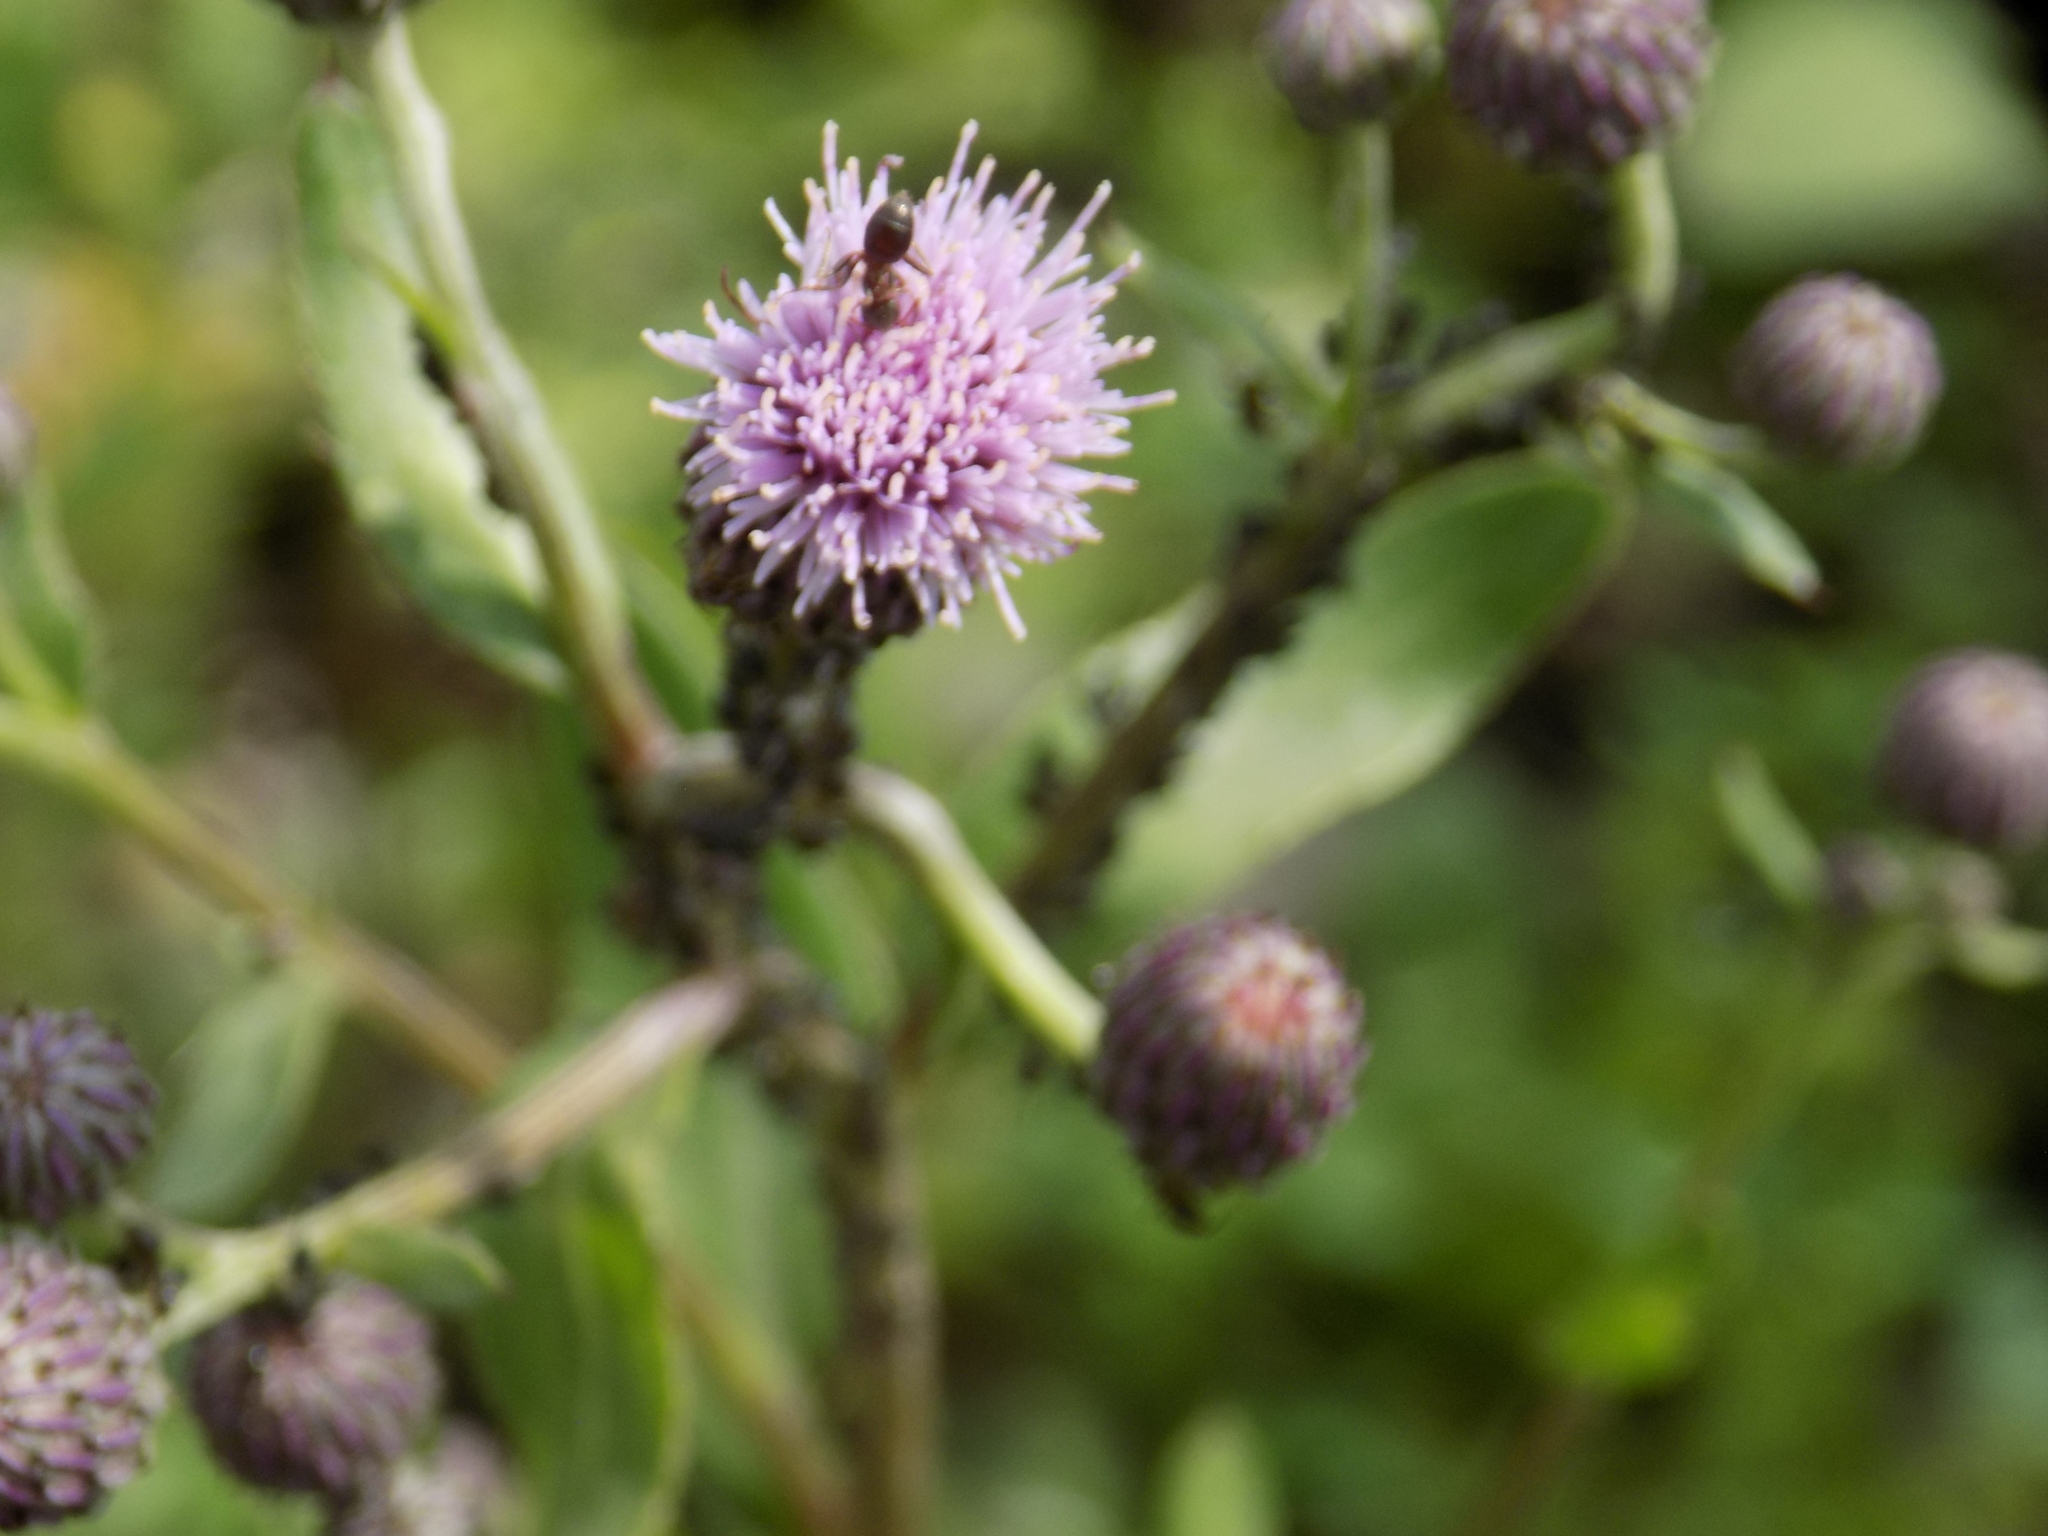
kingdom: Plantae
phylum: Tracheophyta
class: Magnoliopsida
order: Asterales
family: Asteraceae
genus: Cirsium
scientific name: Cirsium arvense
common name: Creeping thistle
